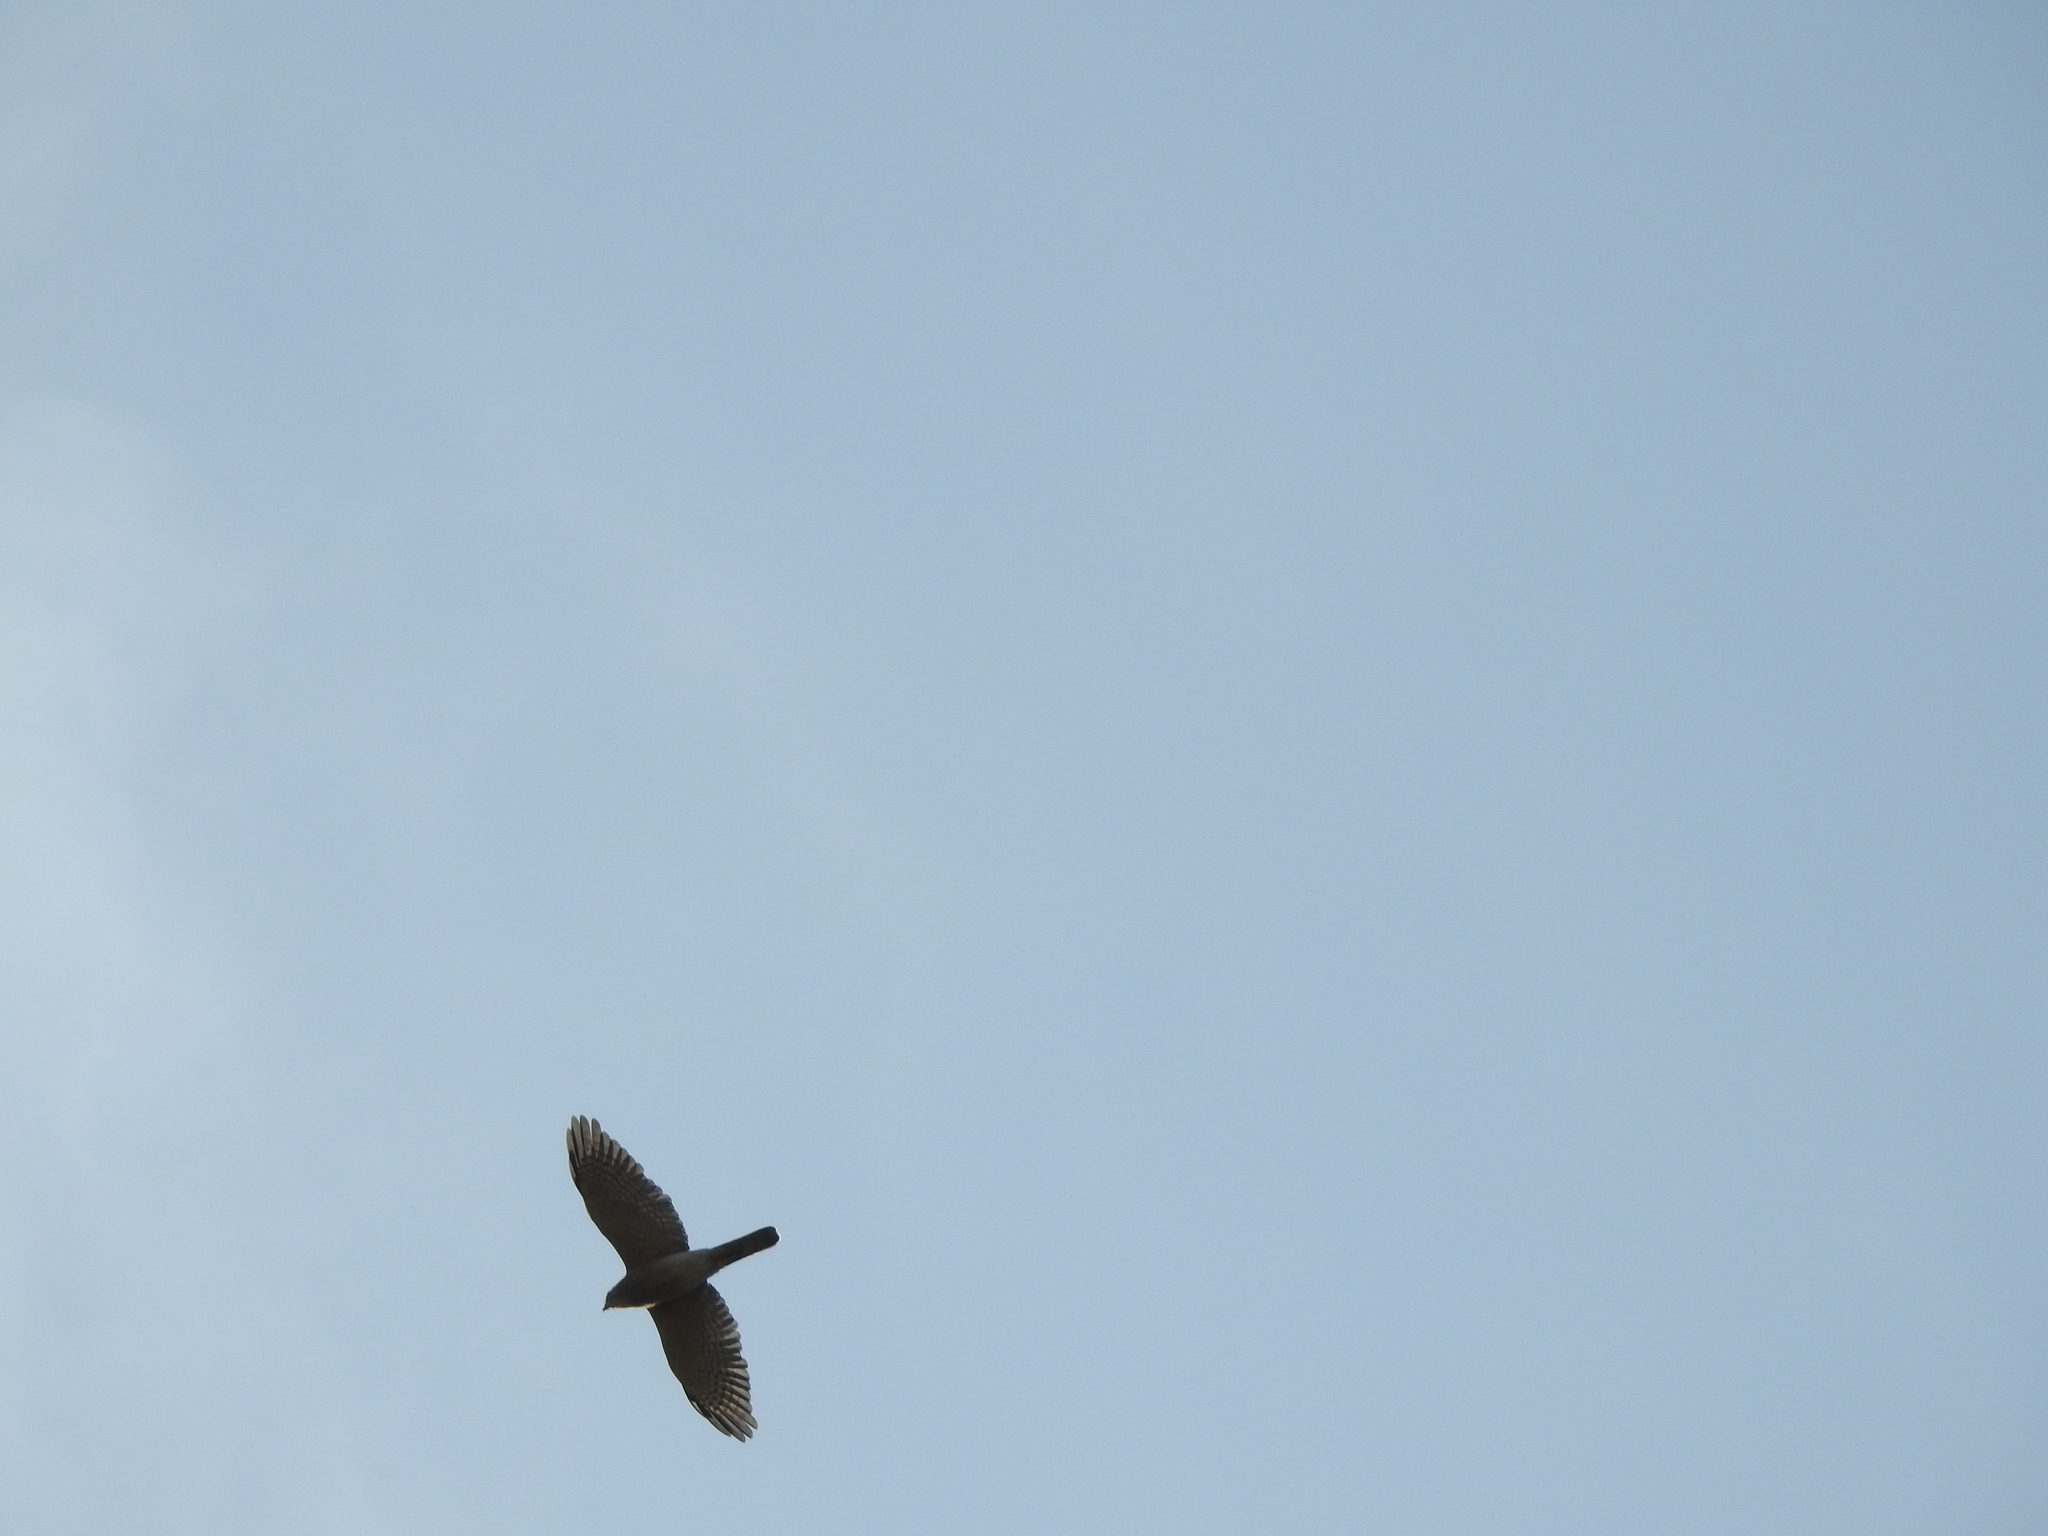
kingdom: Animalia
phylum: Chordata
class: Aves
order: Accipitriformes
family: Accipitridae
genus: Accipiter
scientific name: Accipiter badius
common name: Shikra
